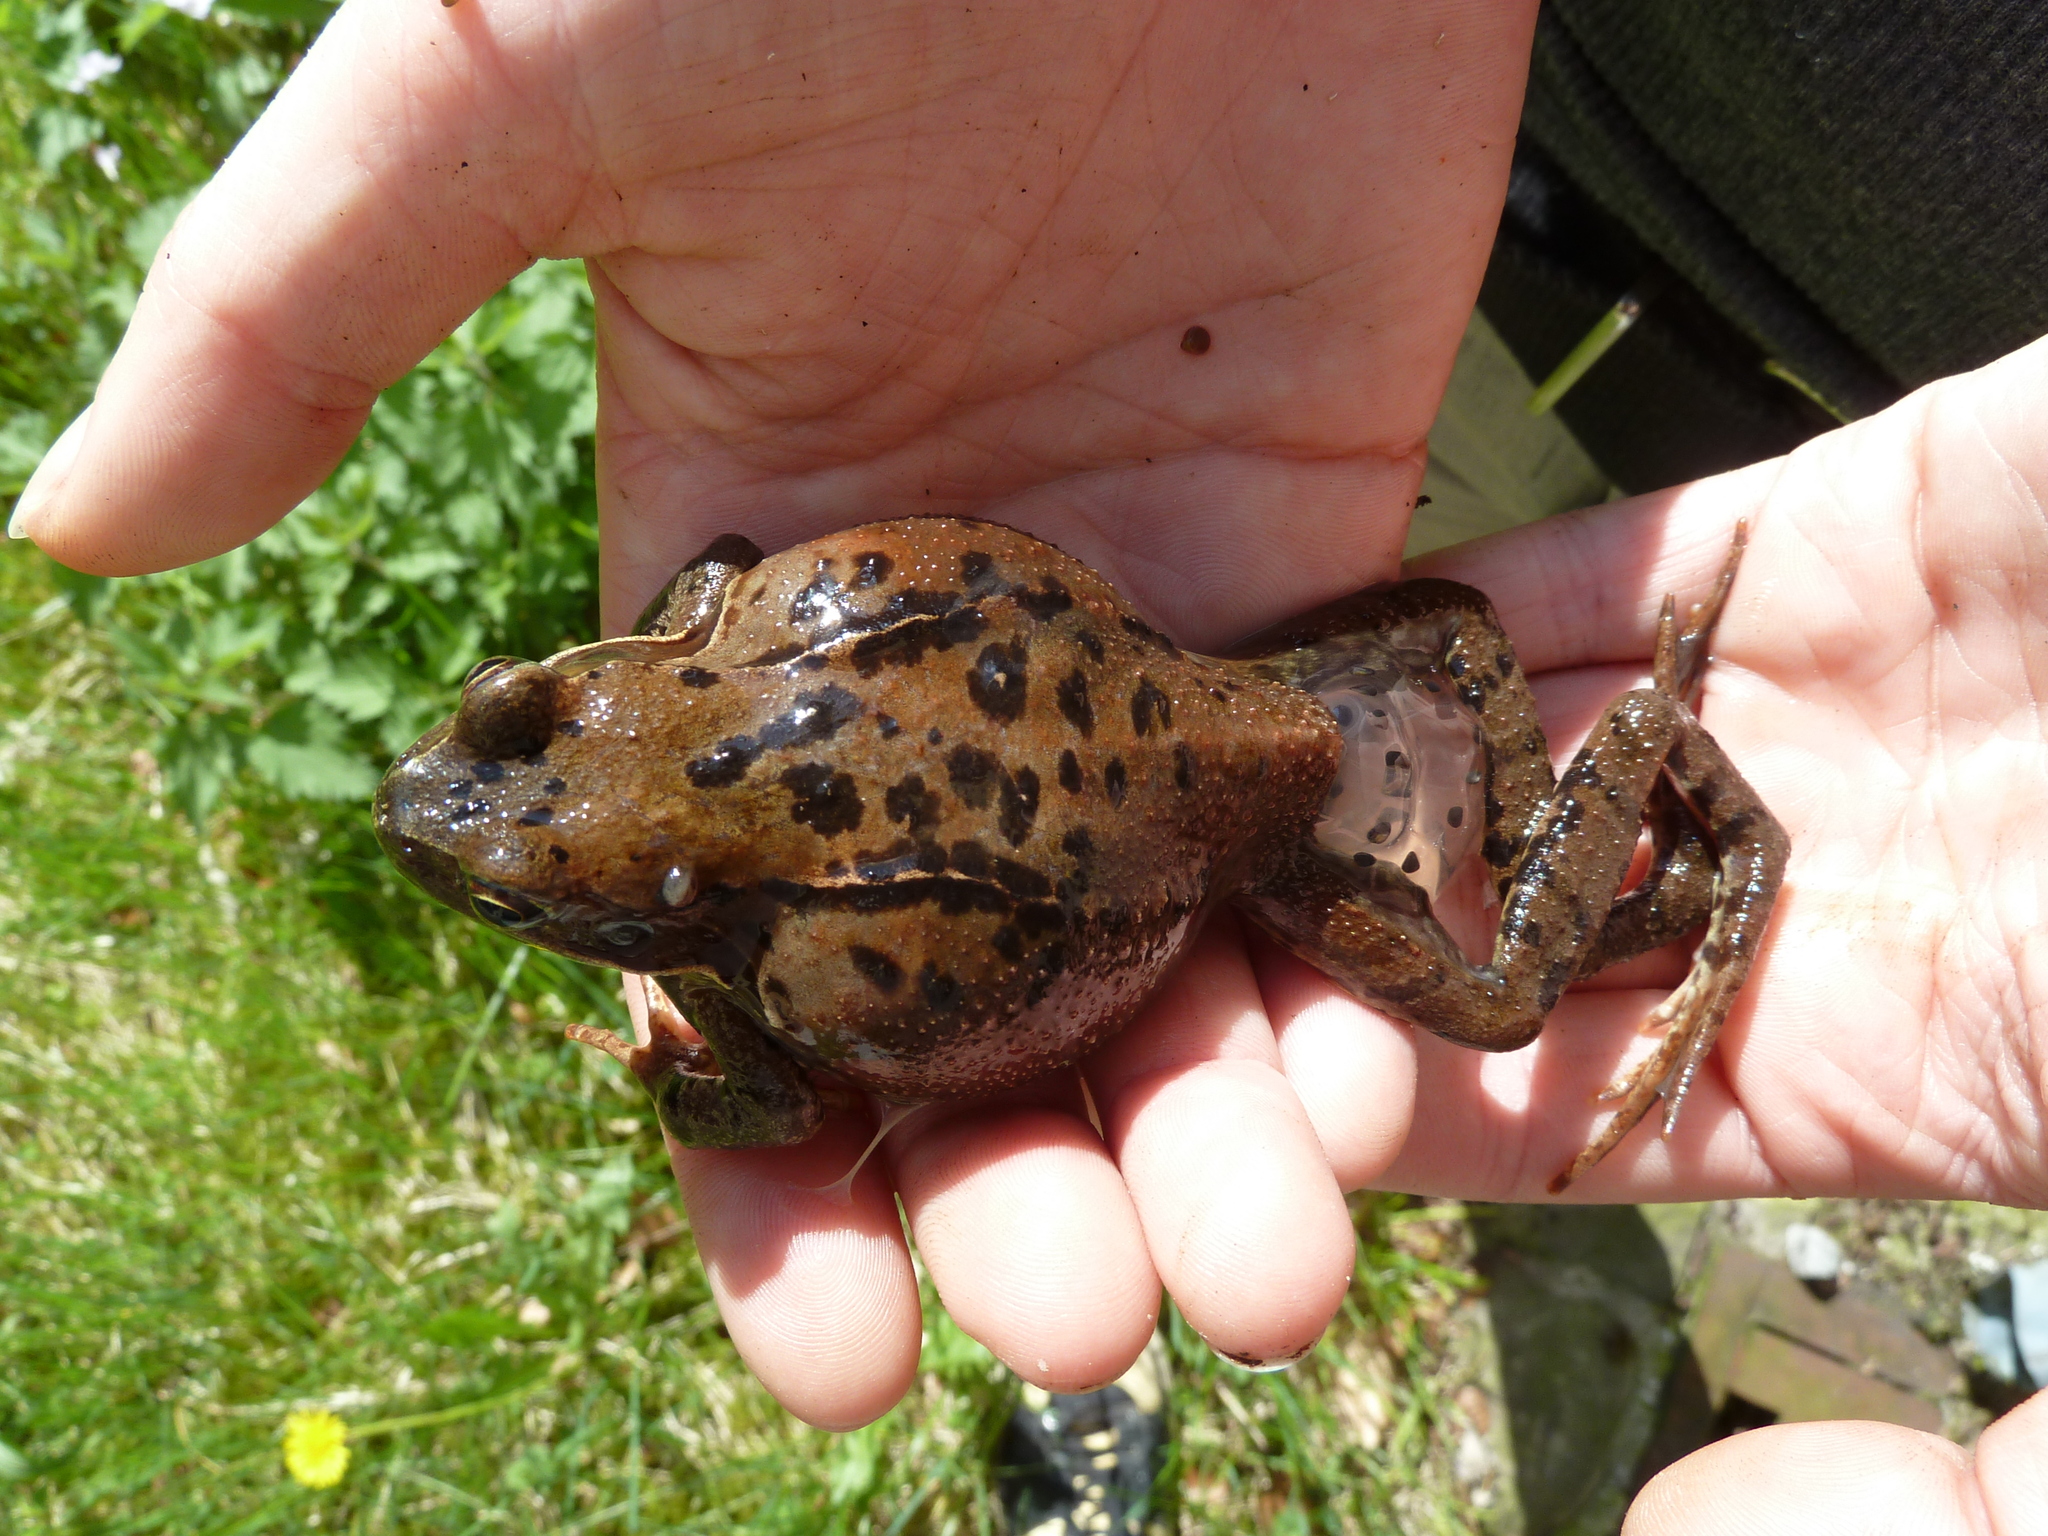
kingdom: Animalia
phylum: Chordata
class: Amphibia
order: Anura
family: Ranidae
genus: Rana
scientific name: Rana temporaria
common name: Common frog
